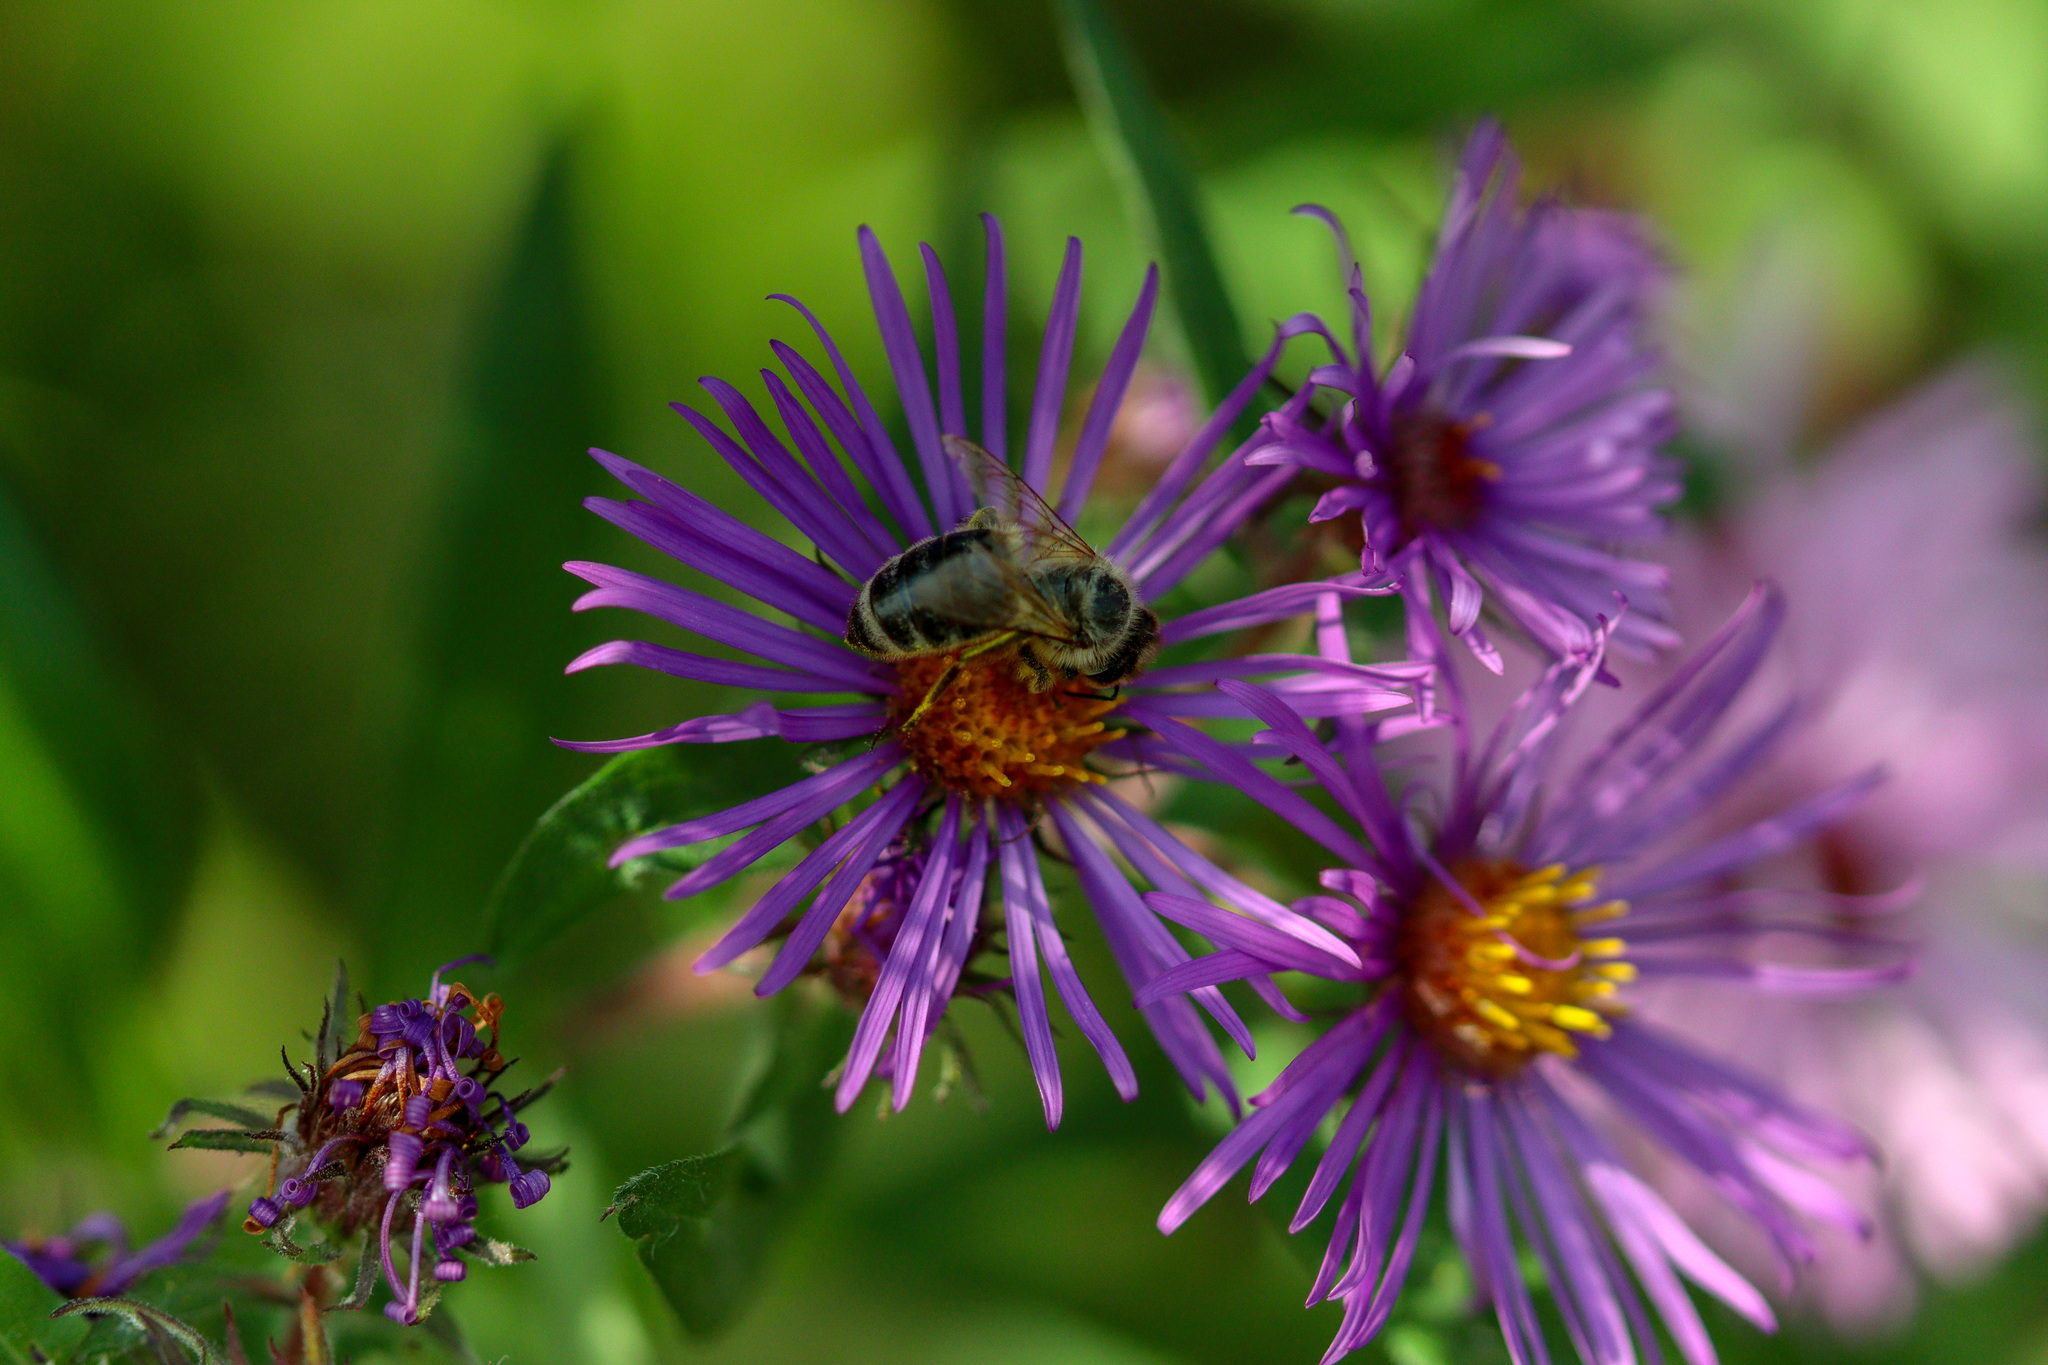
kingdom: Animalia
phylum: Arthropoda
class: Insecta
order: Hymenoptera
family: Apidae
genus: Apis
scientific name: Apis mellifera
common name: Honey bee
